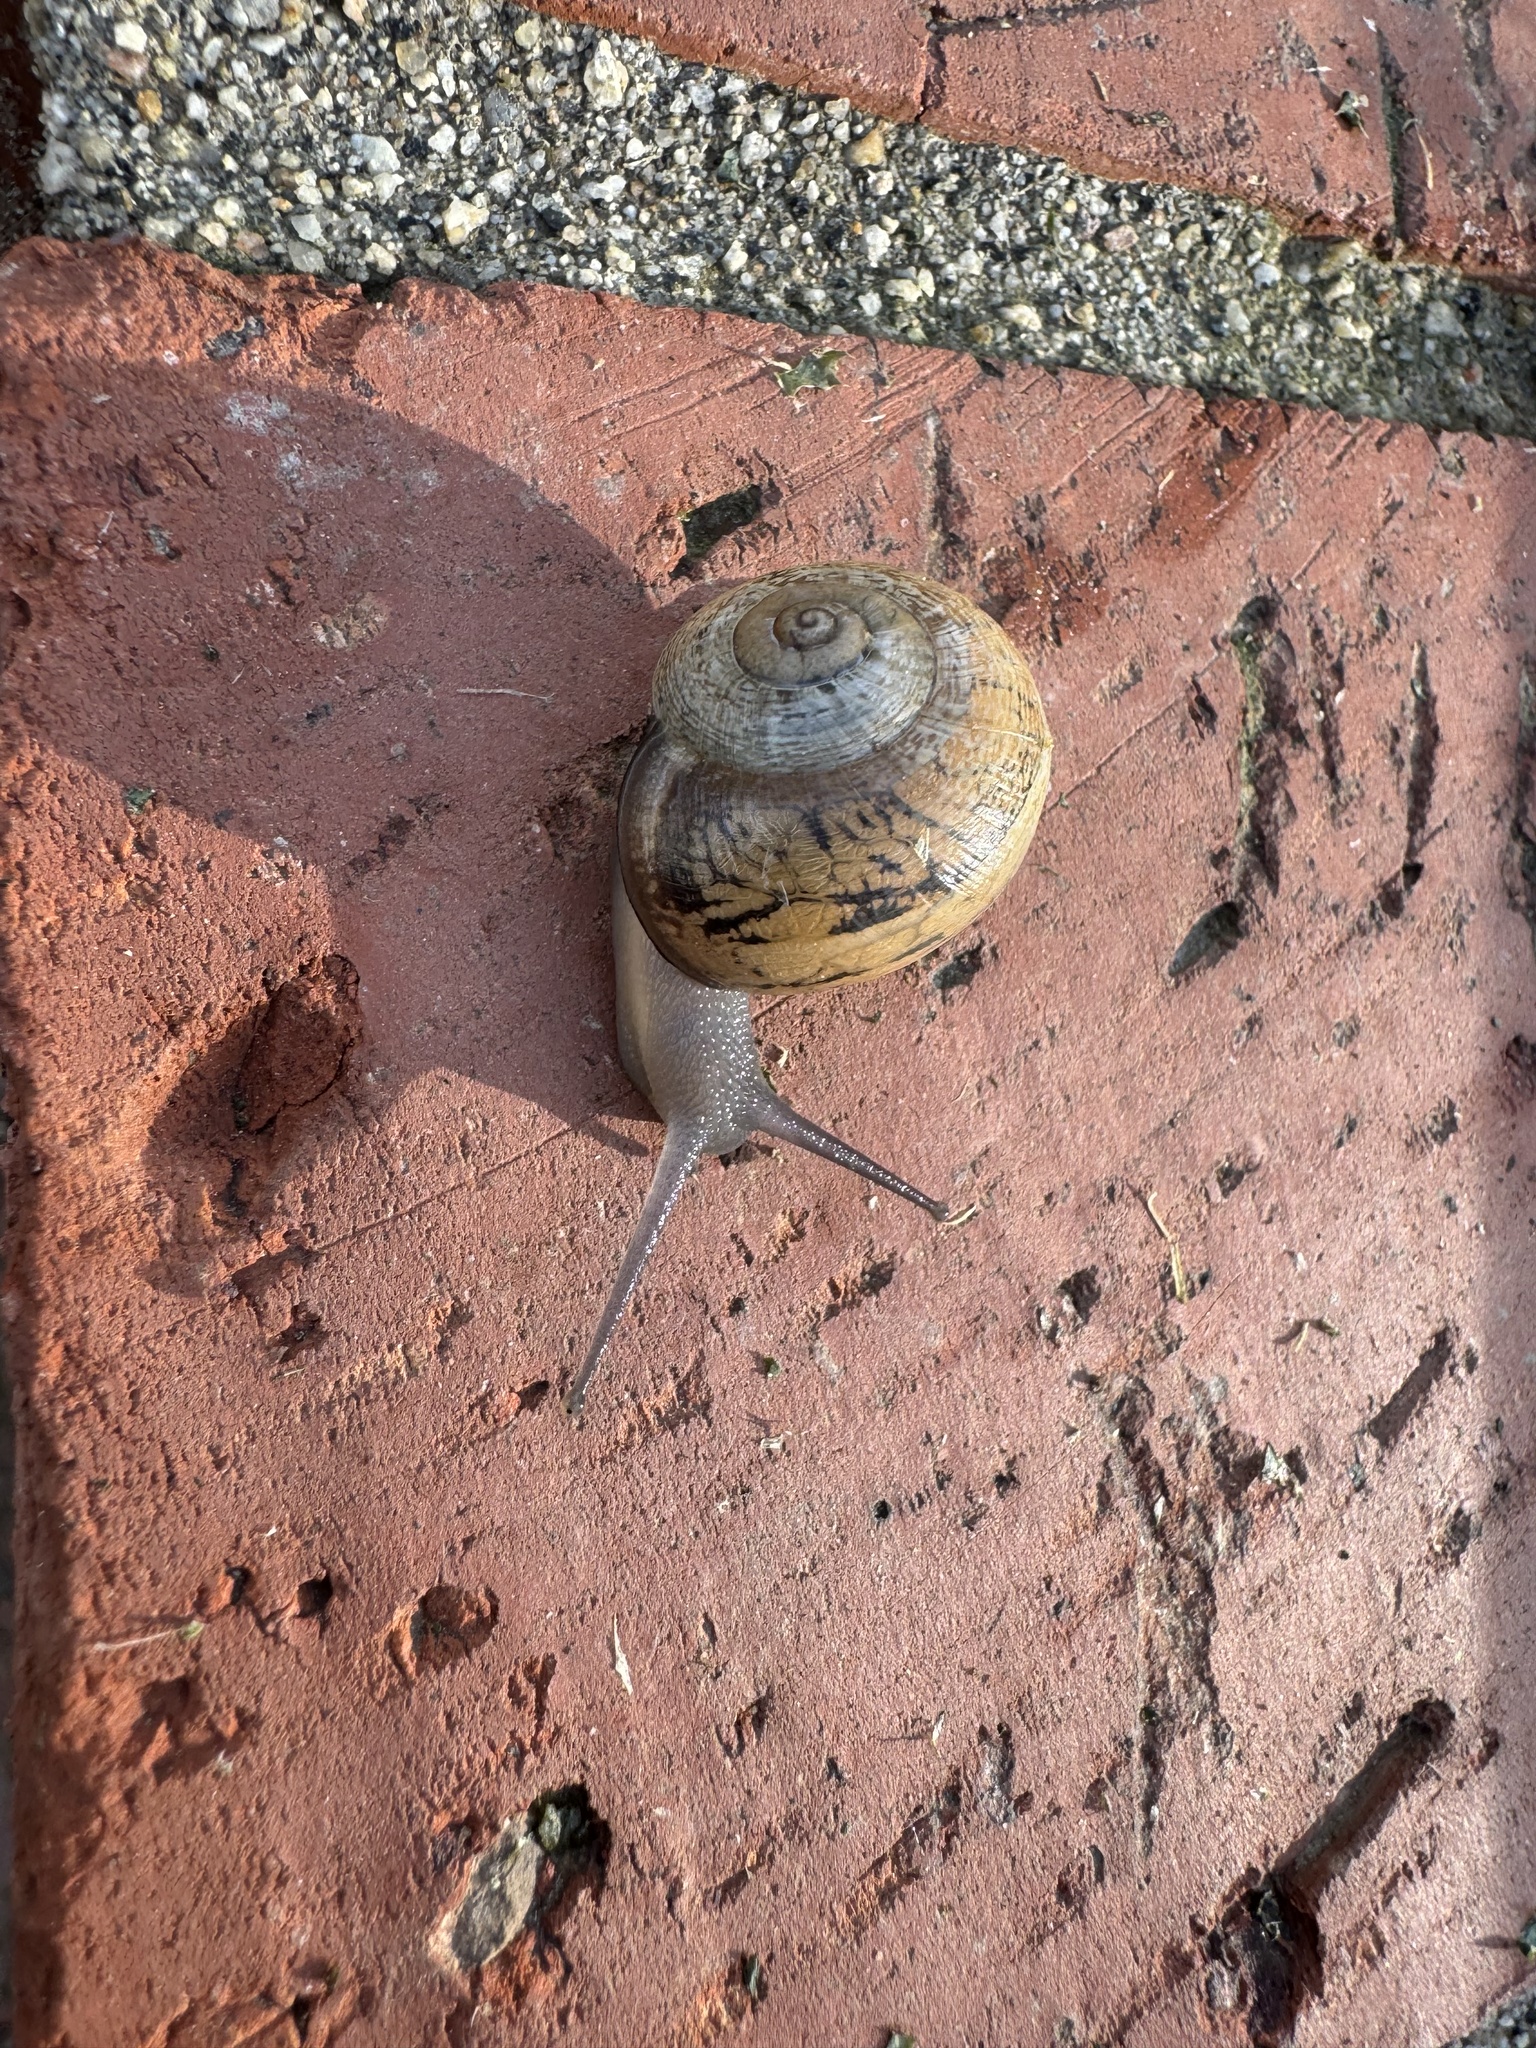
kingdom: Animalia
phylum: Mollusca
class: Gastropoda
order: Stylommatophora
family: Helicidae
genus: Otala
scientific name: Otala lactea
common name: Milk snail
